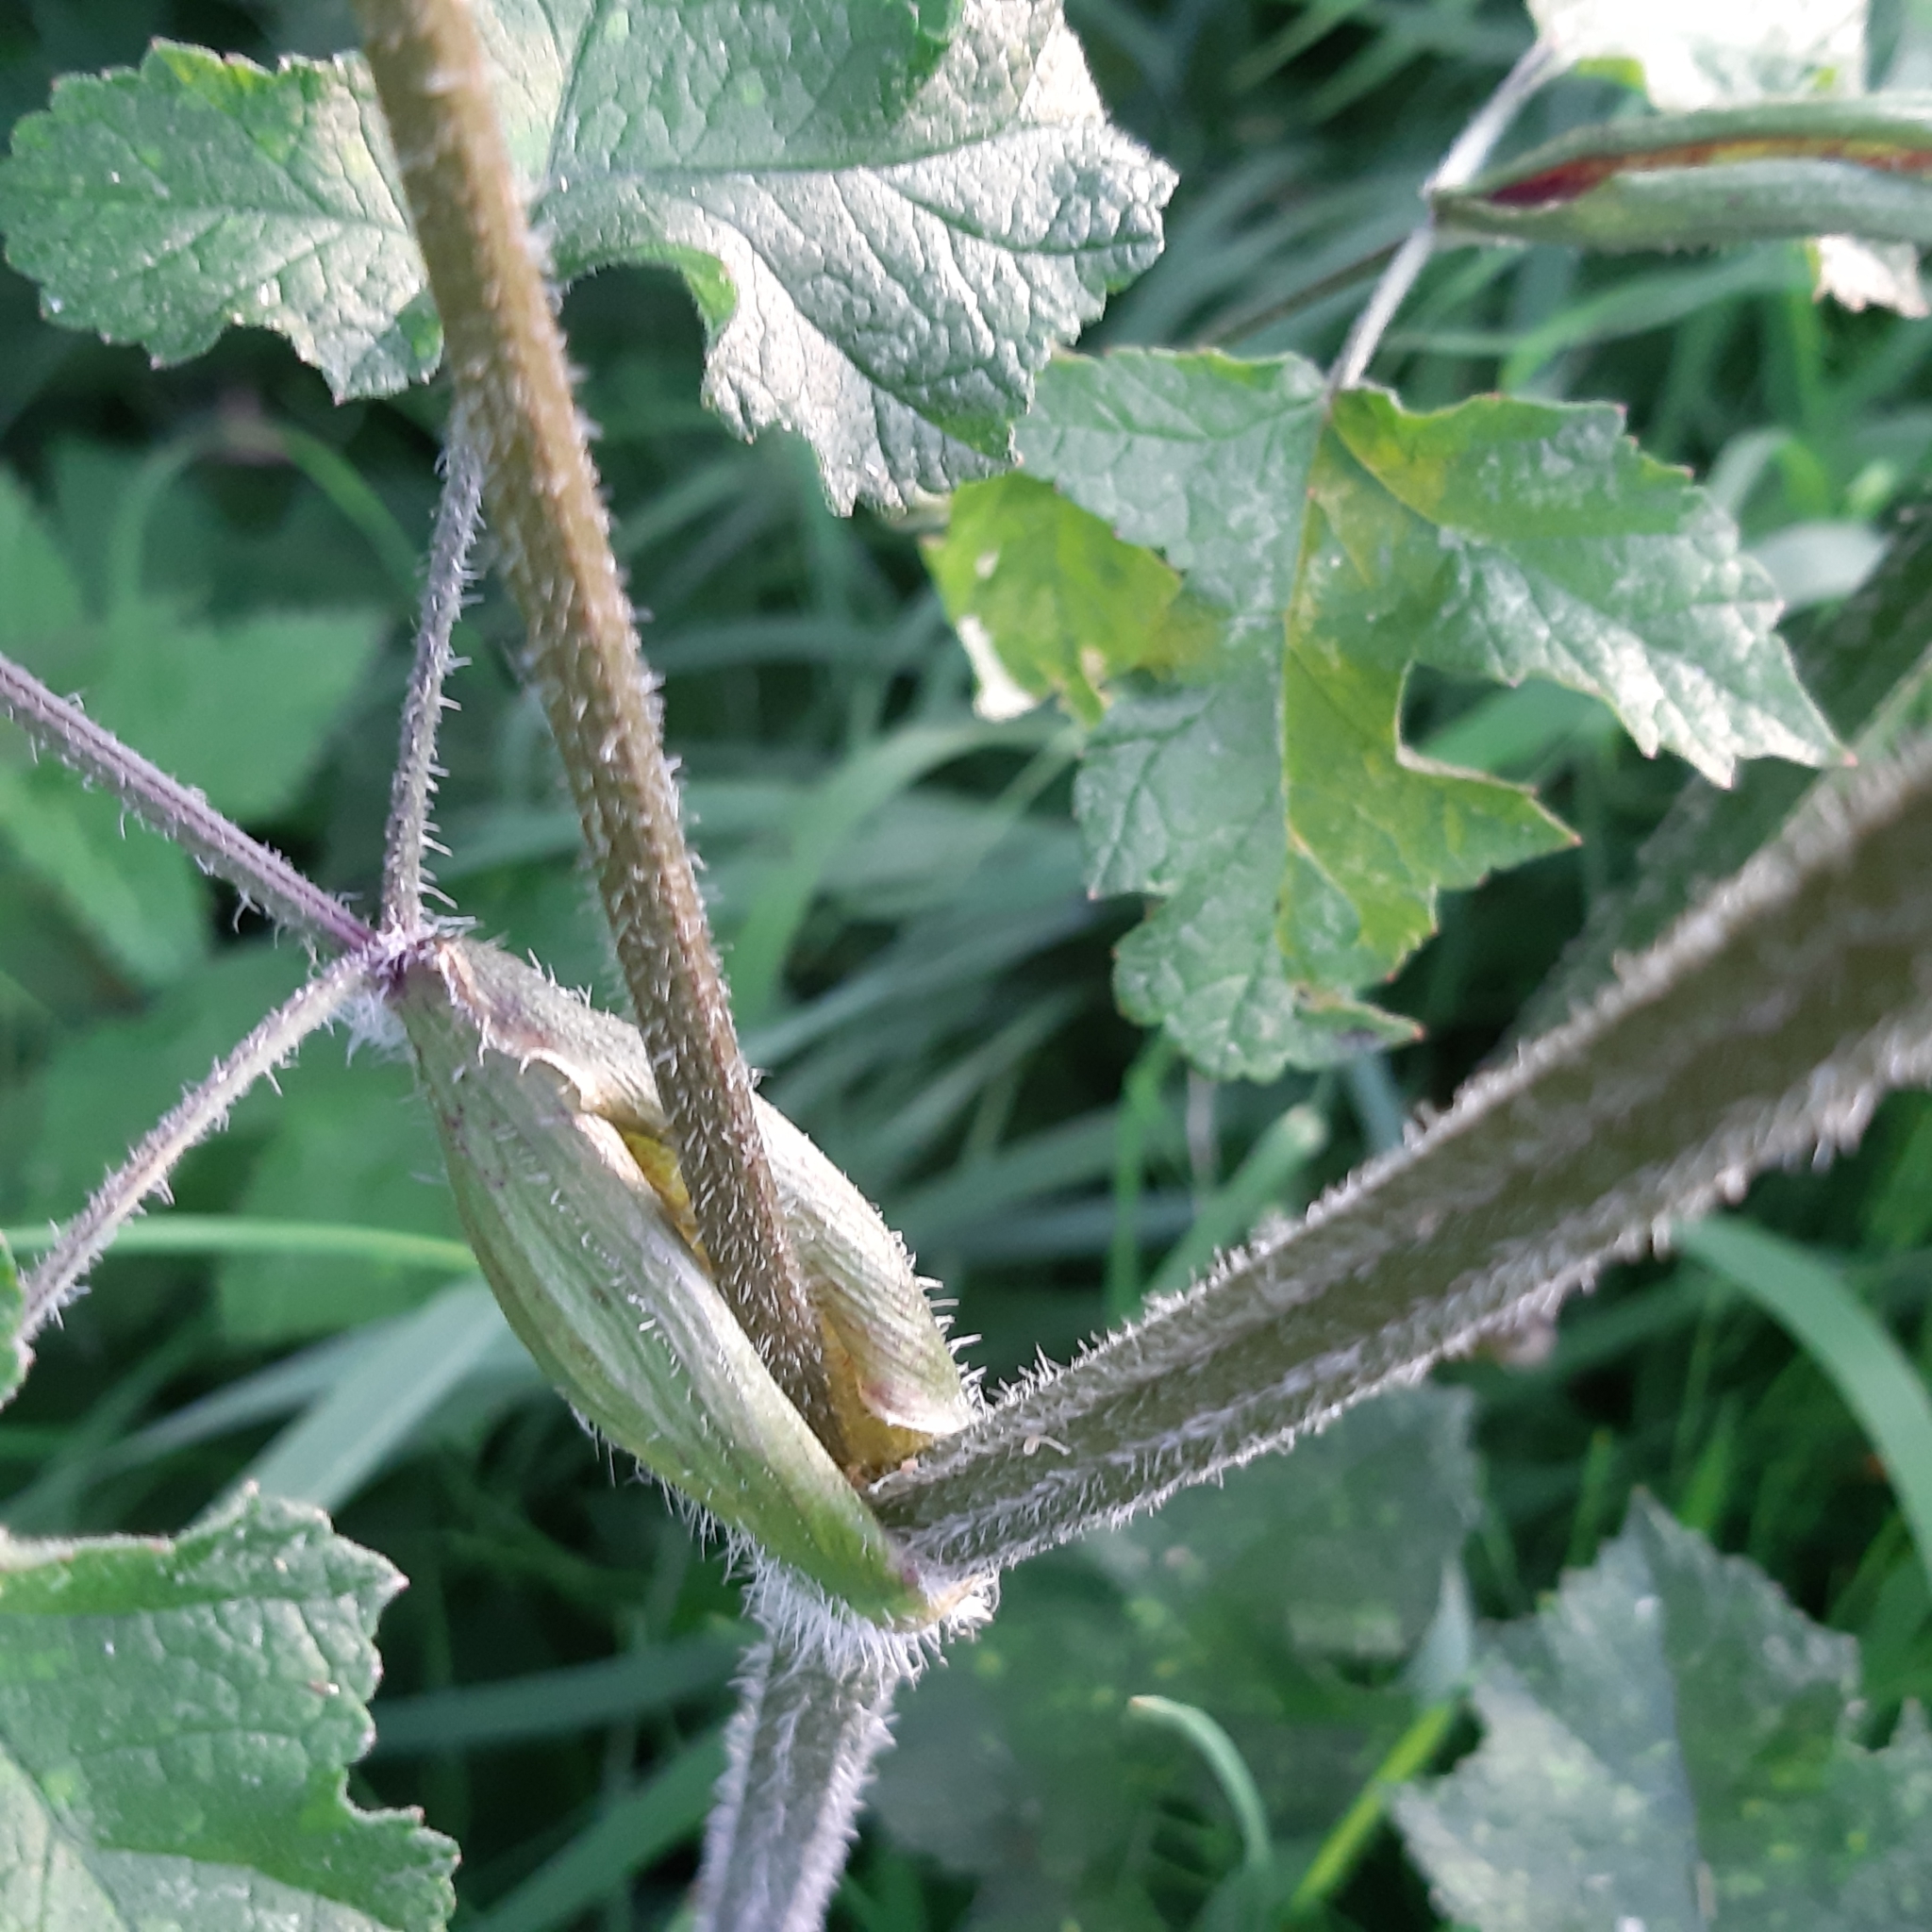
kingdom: Plantae
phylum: Tracheophyta
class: Magnoliopsida
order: Apiales
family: Apiaceae
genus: Heracleum
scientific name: Heracleum sphondylium
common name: Hogweed
